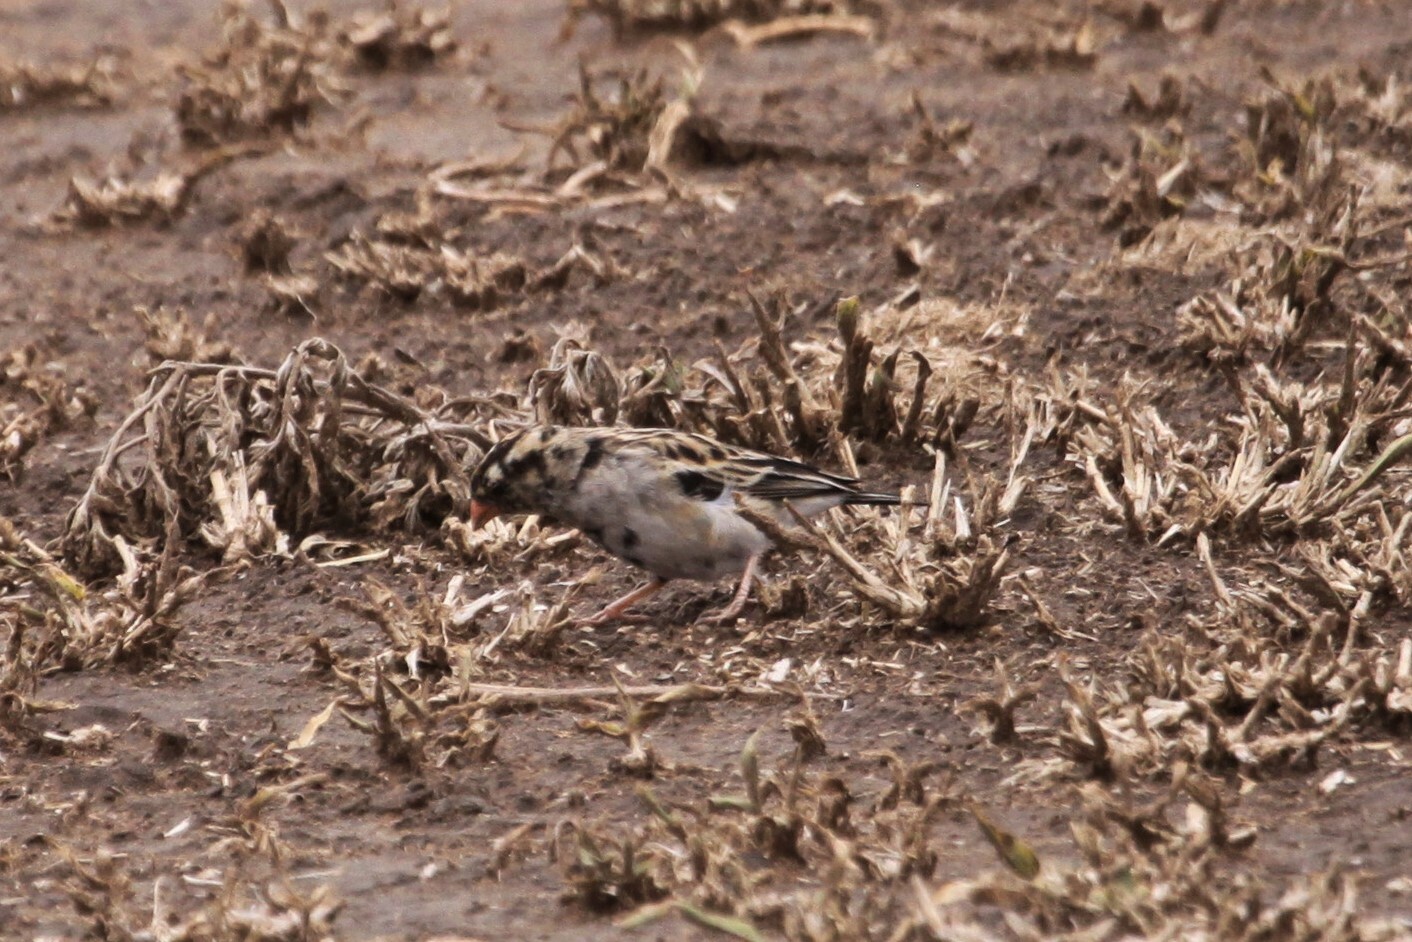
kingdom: Animalia
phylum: Chordata
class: Aves
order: Passeriformes
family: Viduidae
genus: Vidua
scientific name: Vidua chalybeata
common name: Village indigobird
